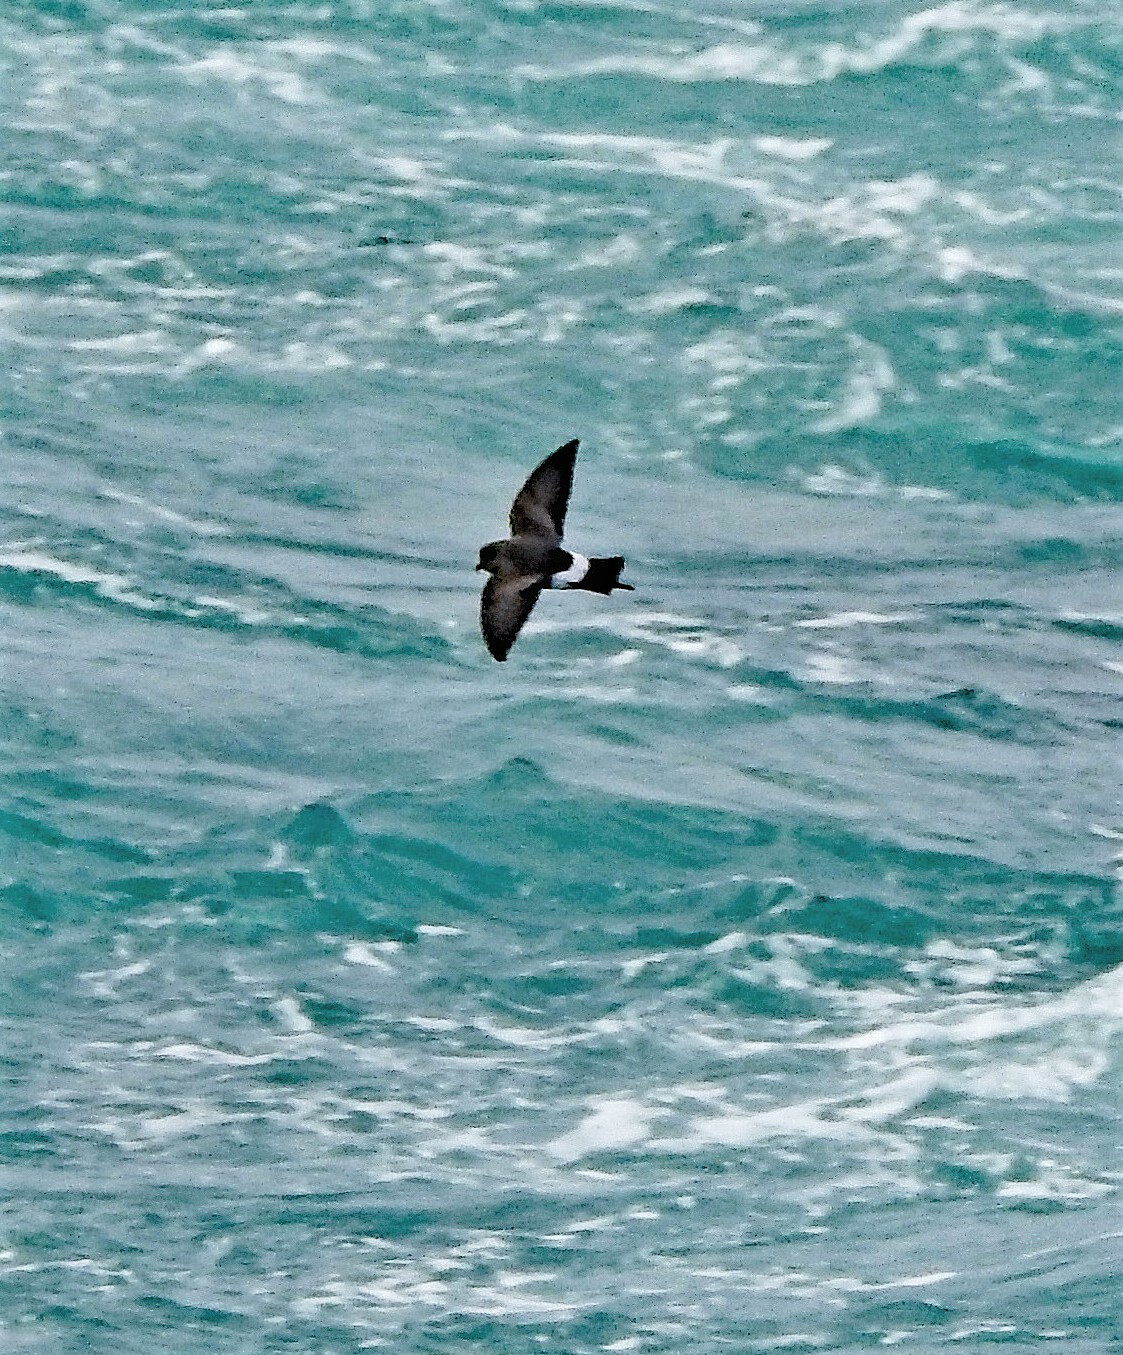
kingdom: Animalia
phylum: Chordata
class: Aves
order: Procellariiformes
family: Hydrobatidae
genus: Oceanites
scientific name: Oceanites oceanicus
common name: Wilson's storm petrel
